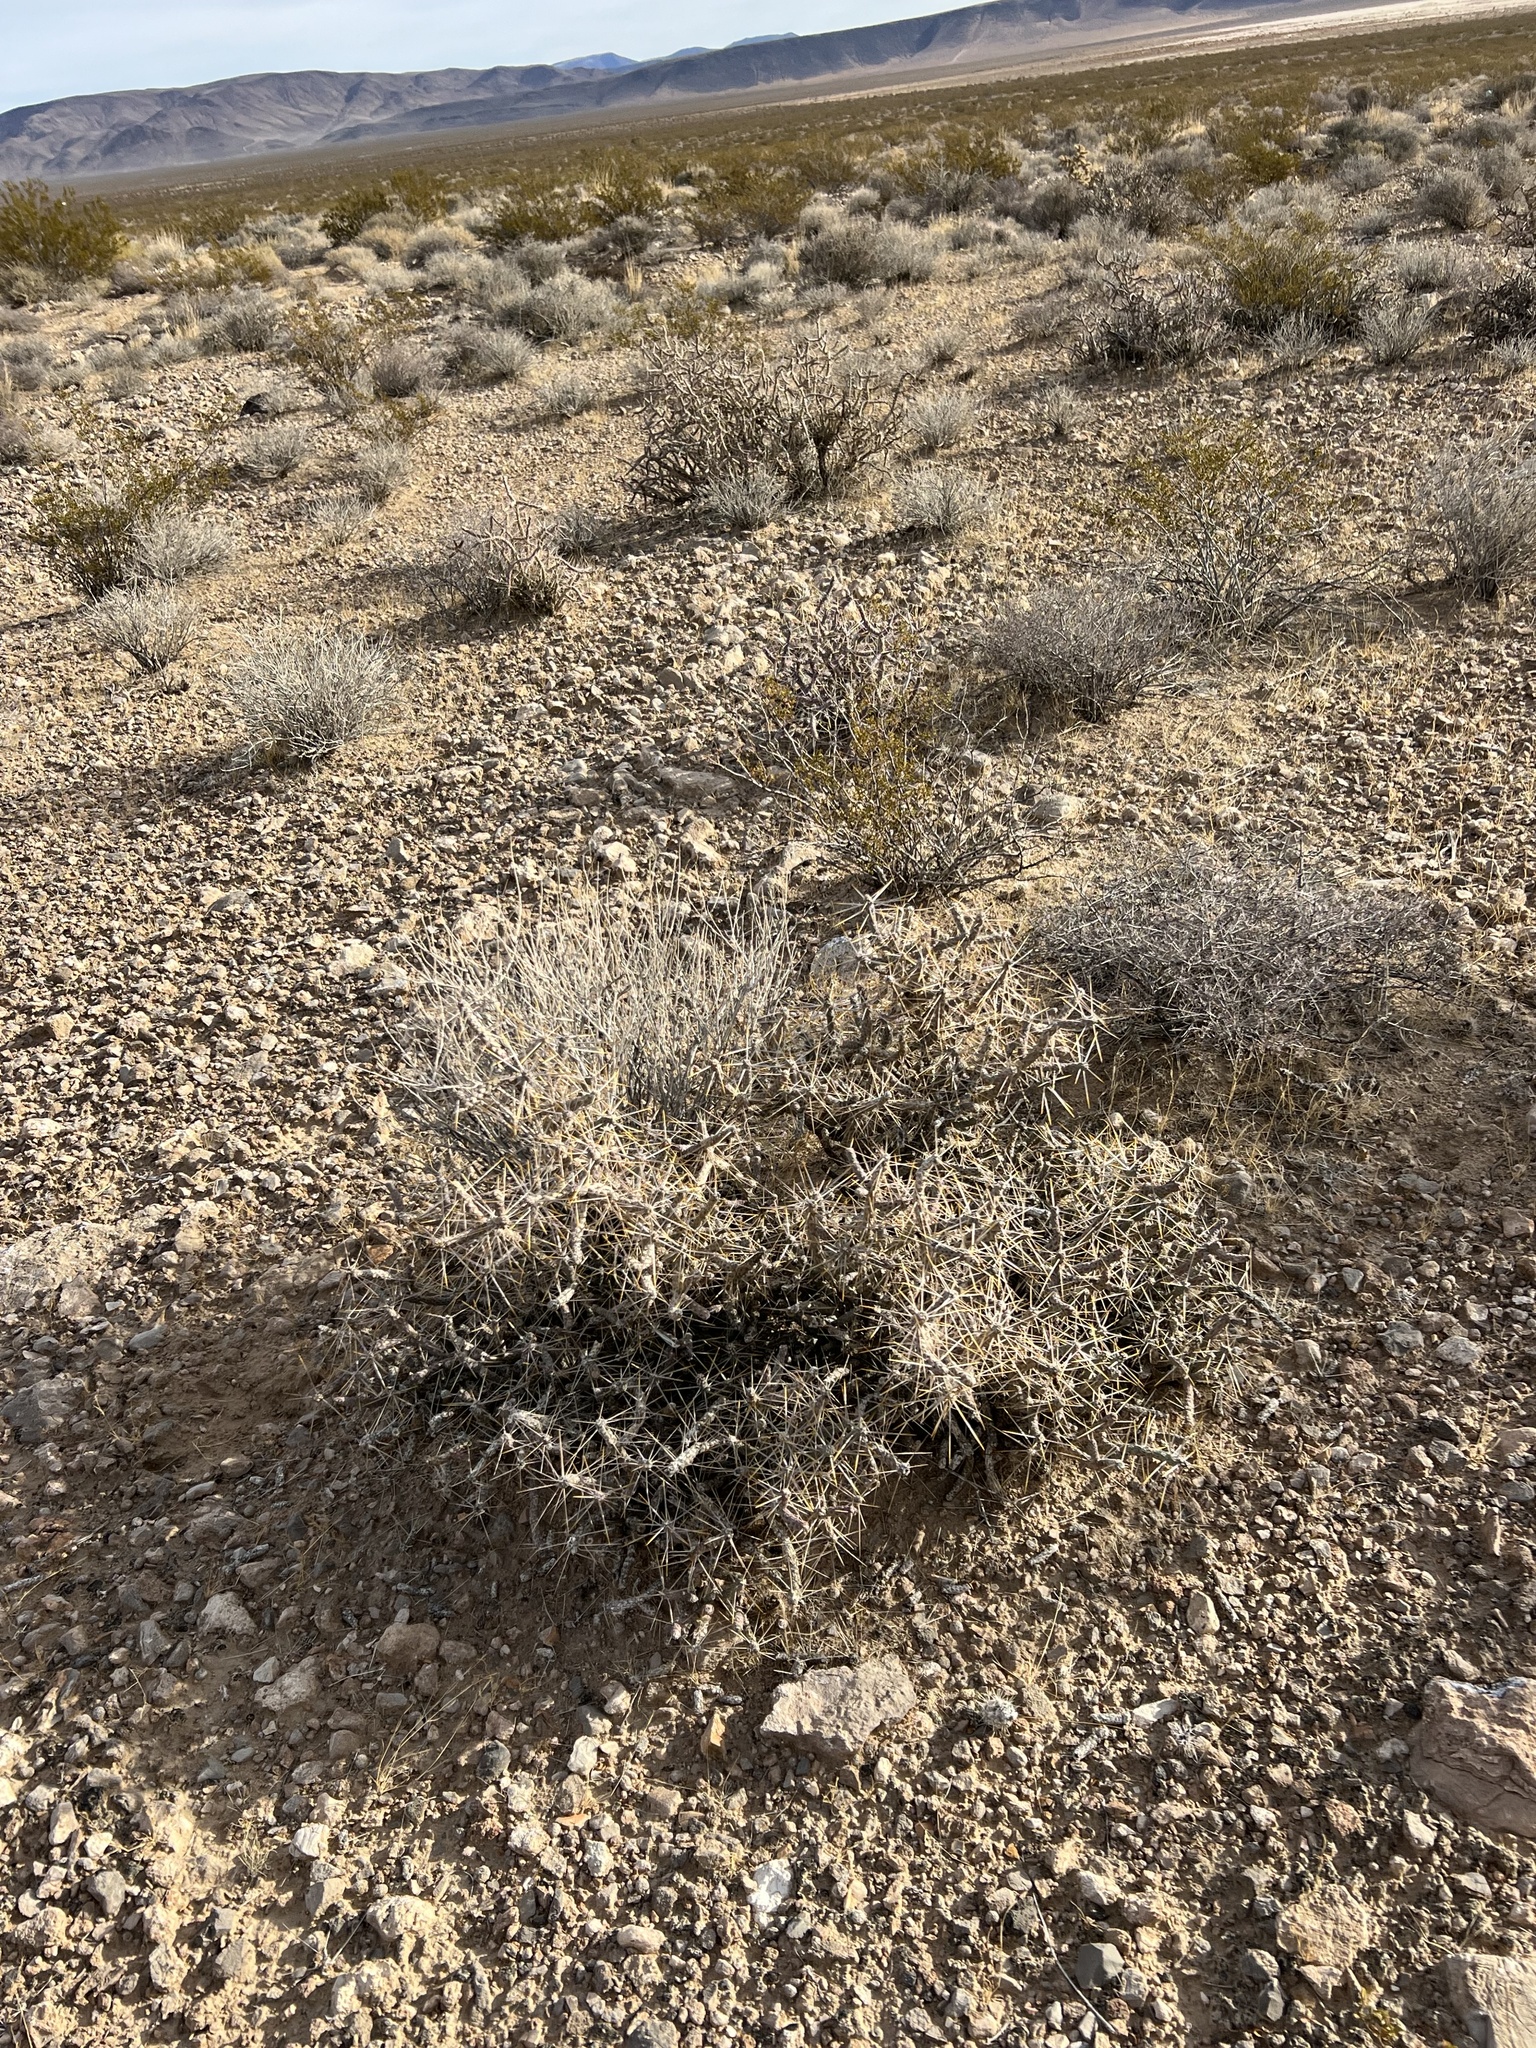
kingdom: Plantae
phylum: Tracheophyta
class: Magnoliopsida
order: Caryophyllales
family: Cactaceae
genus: Cylindropuntia
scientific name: Cylindropuntia ramosissima
